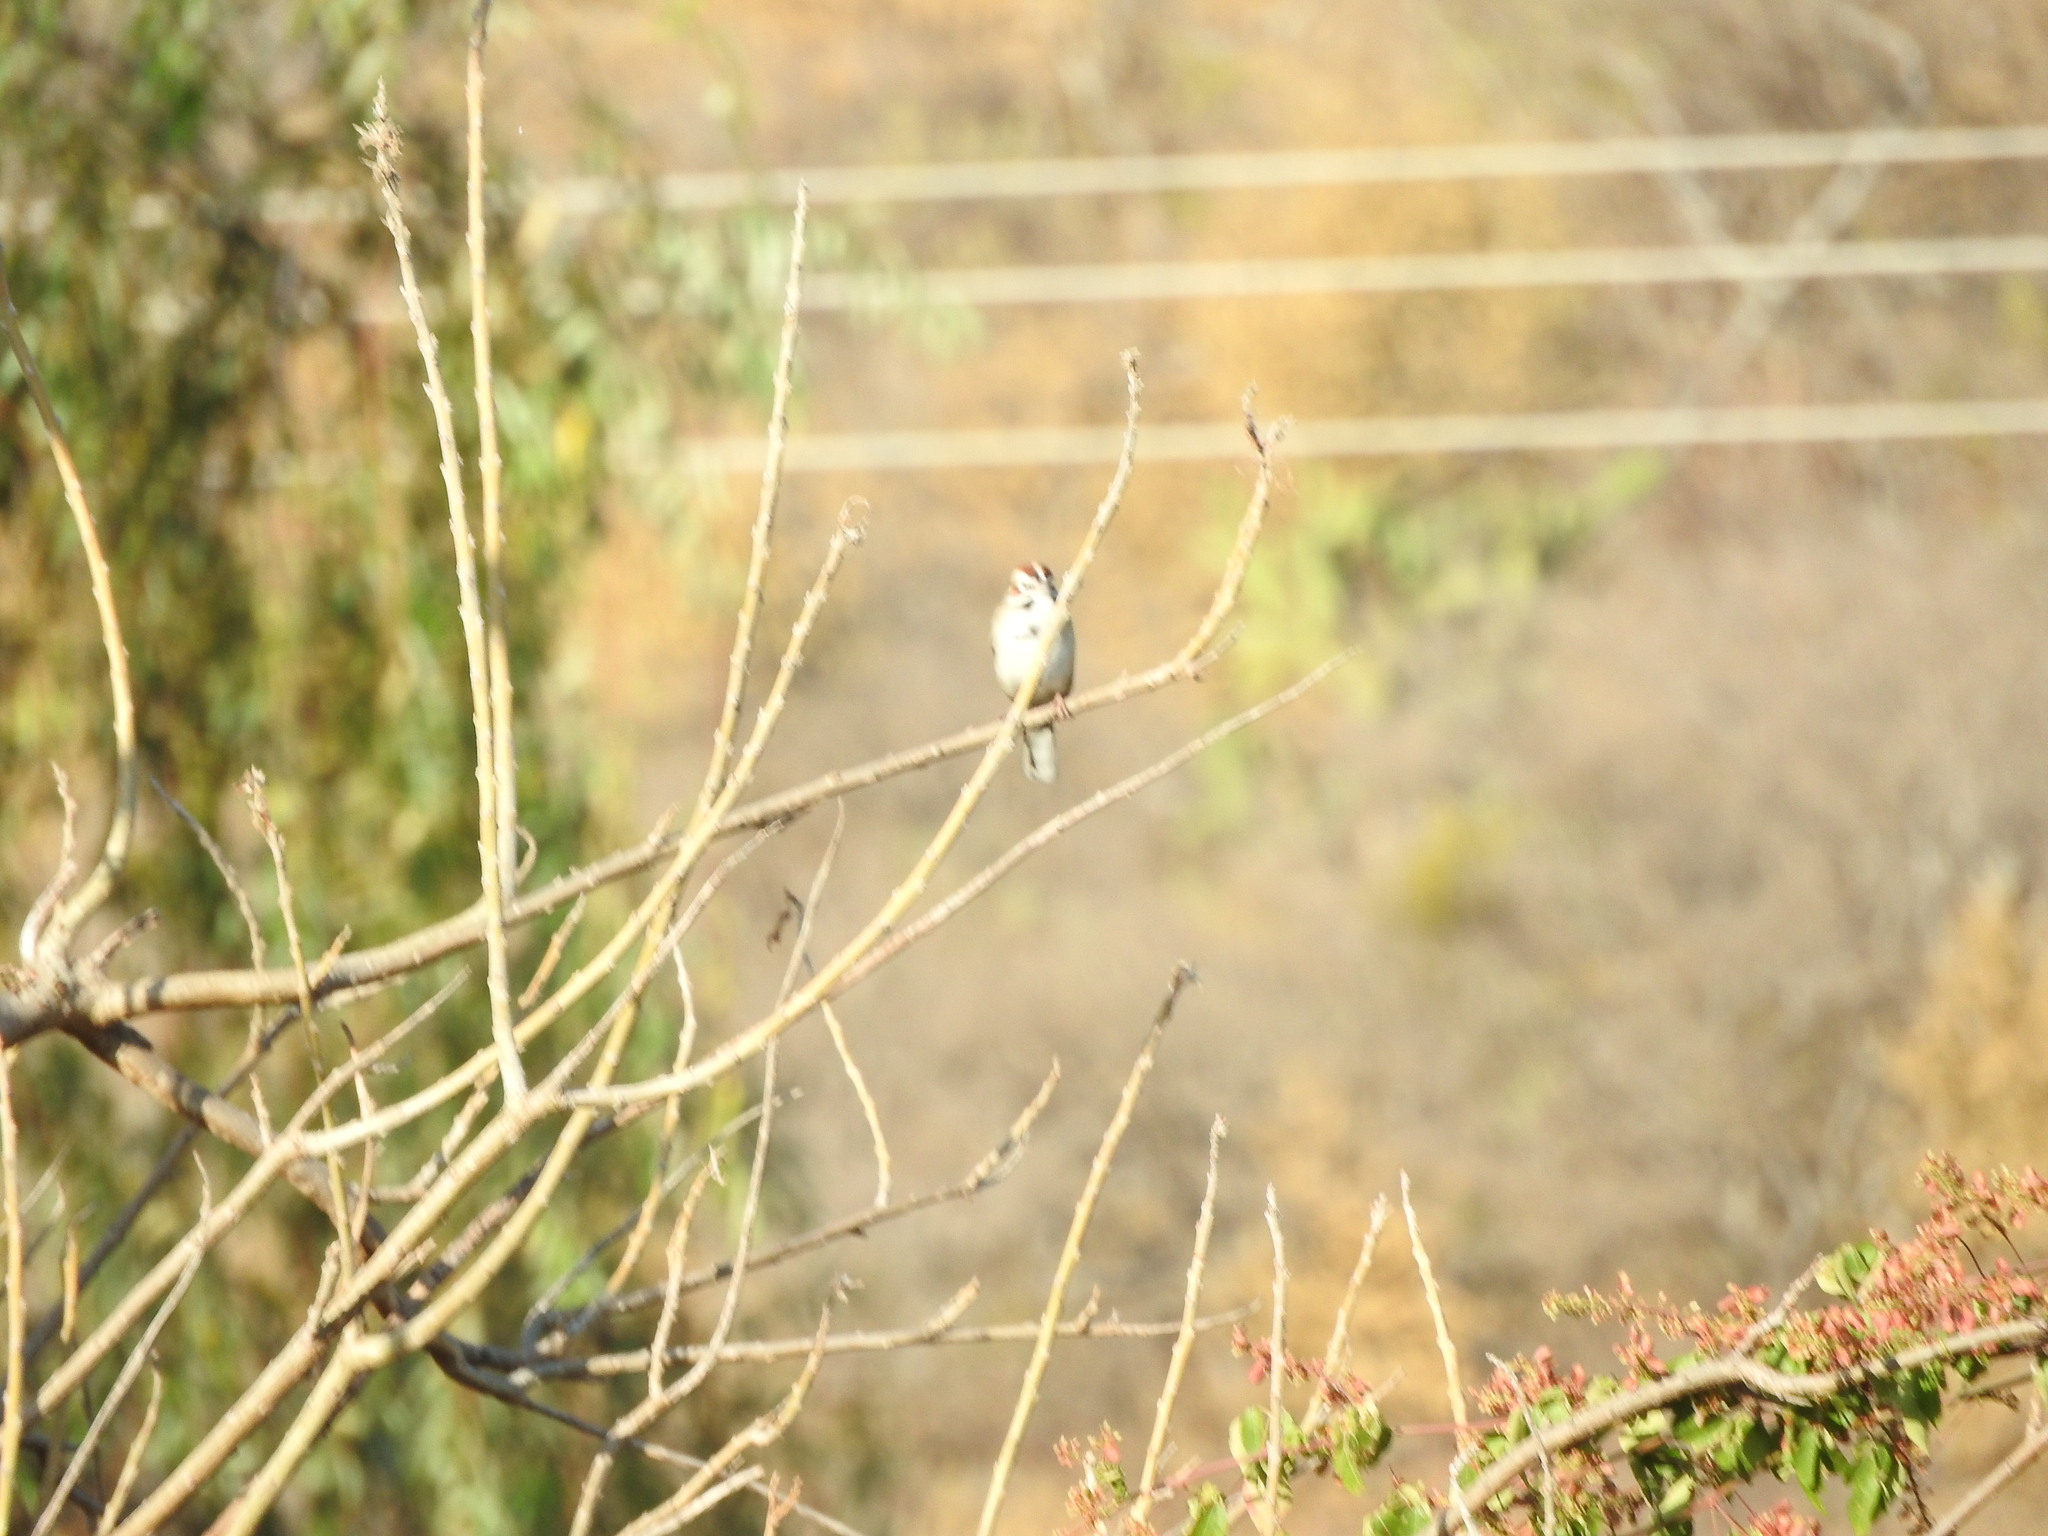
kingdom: Animalia
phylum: Chordata
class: Aves
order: Passeriformes
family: Passerellidae
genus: Chondestes
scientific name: Chondestes grammacus
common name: Lark sparrow
